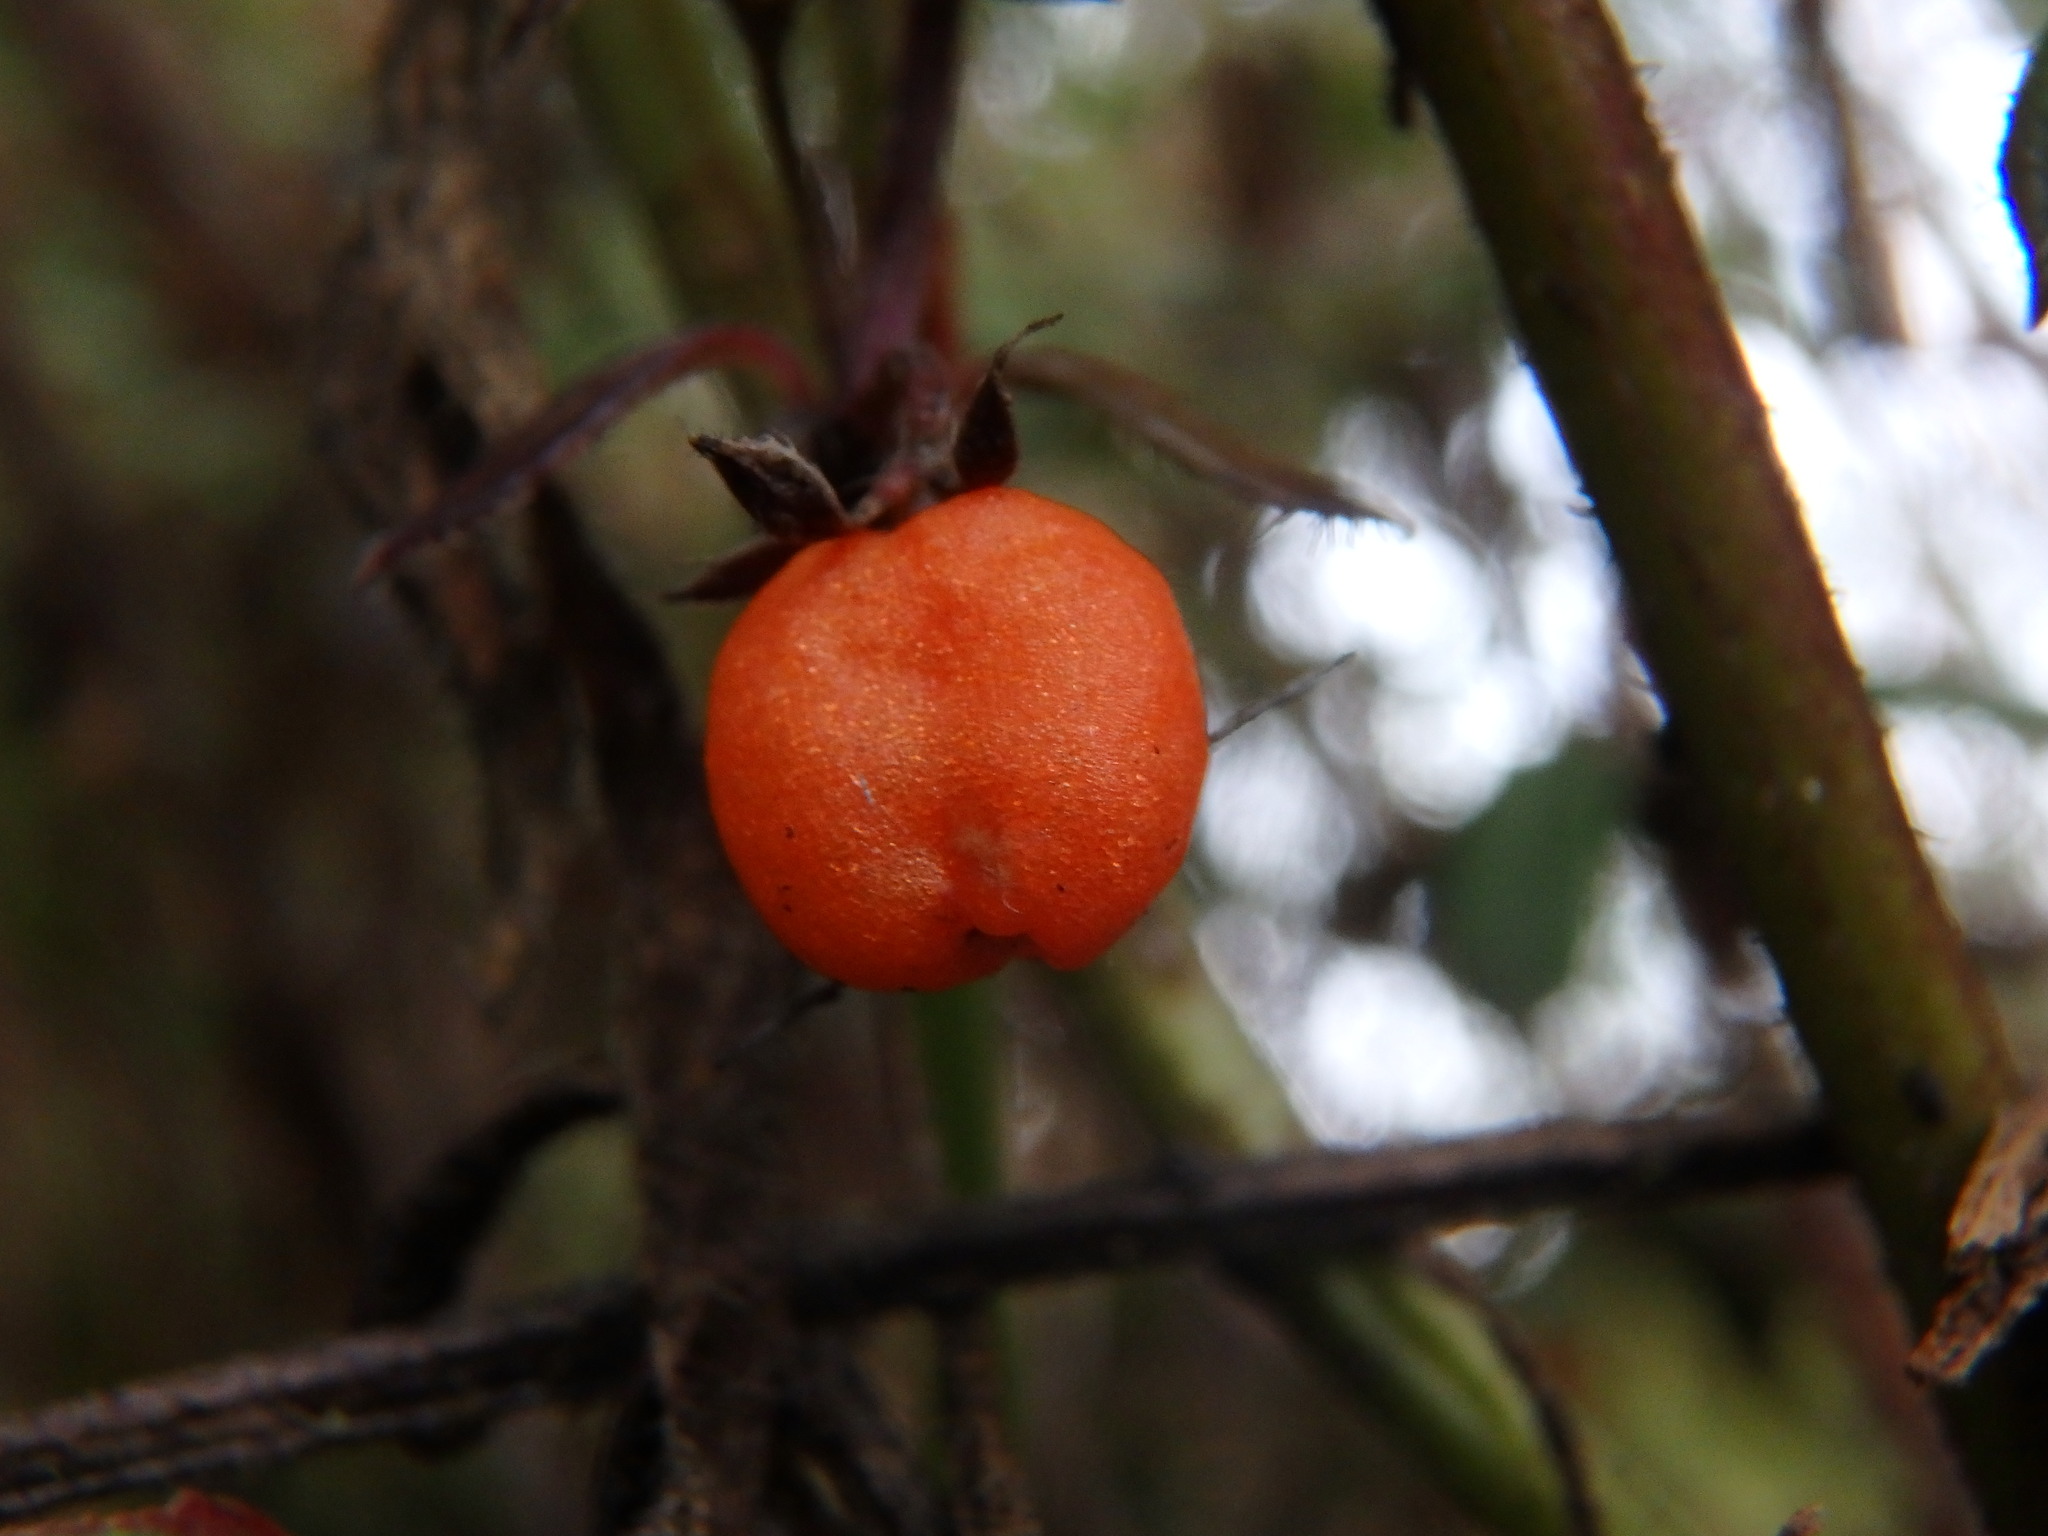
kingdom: Plantae
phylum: Tracheophyta
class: Magnoliopsida
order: Gentianales
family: Rubiaceae
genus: Galium
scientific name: Galium hypocarpium
